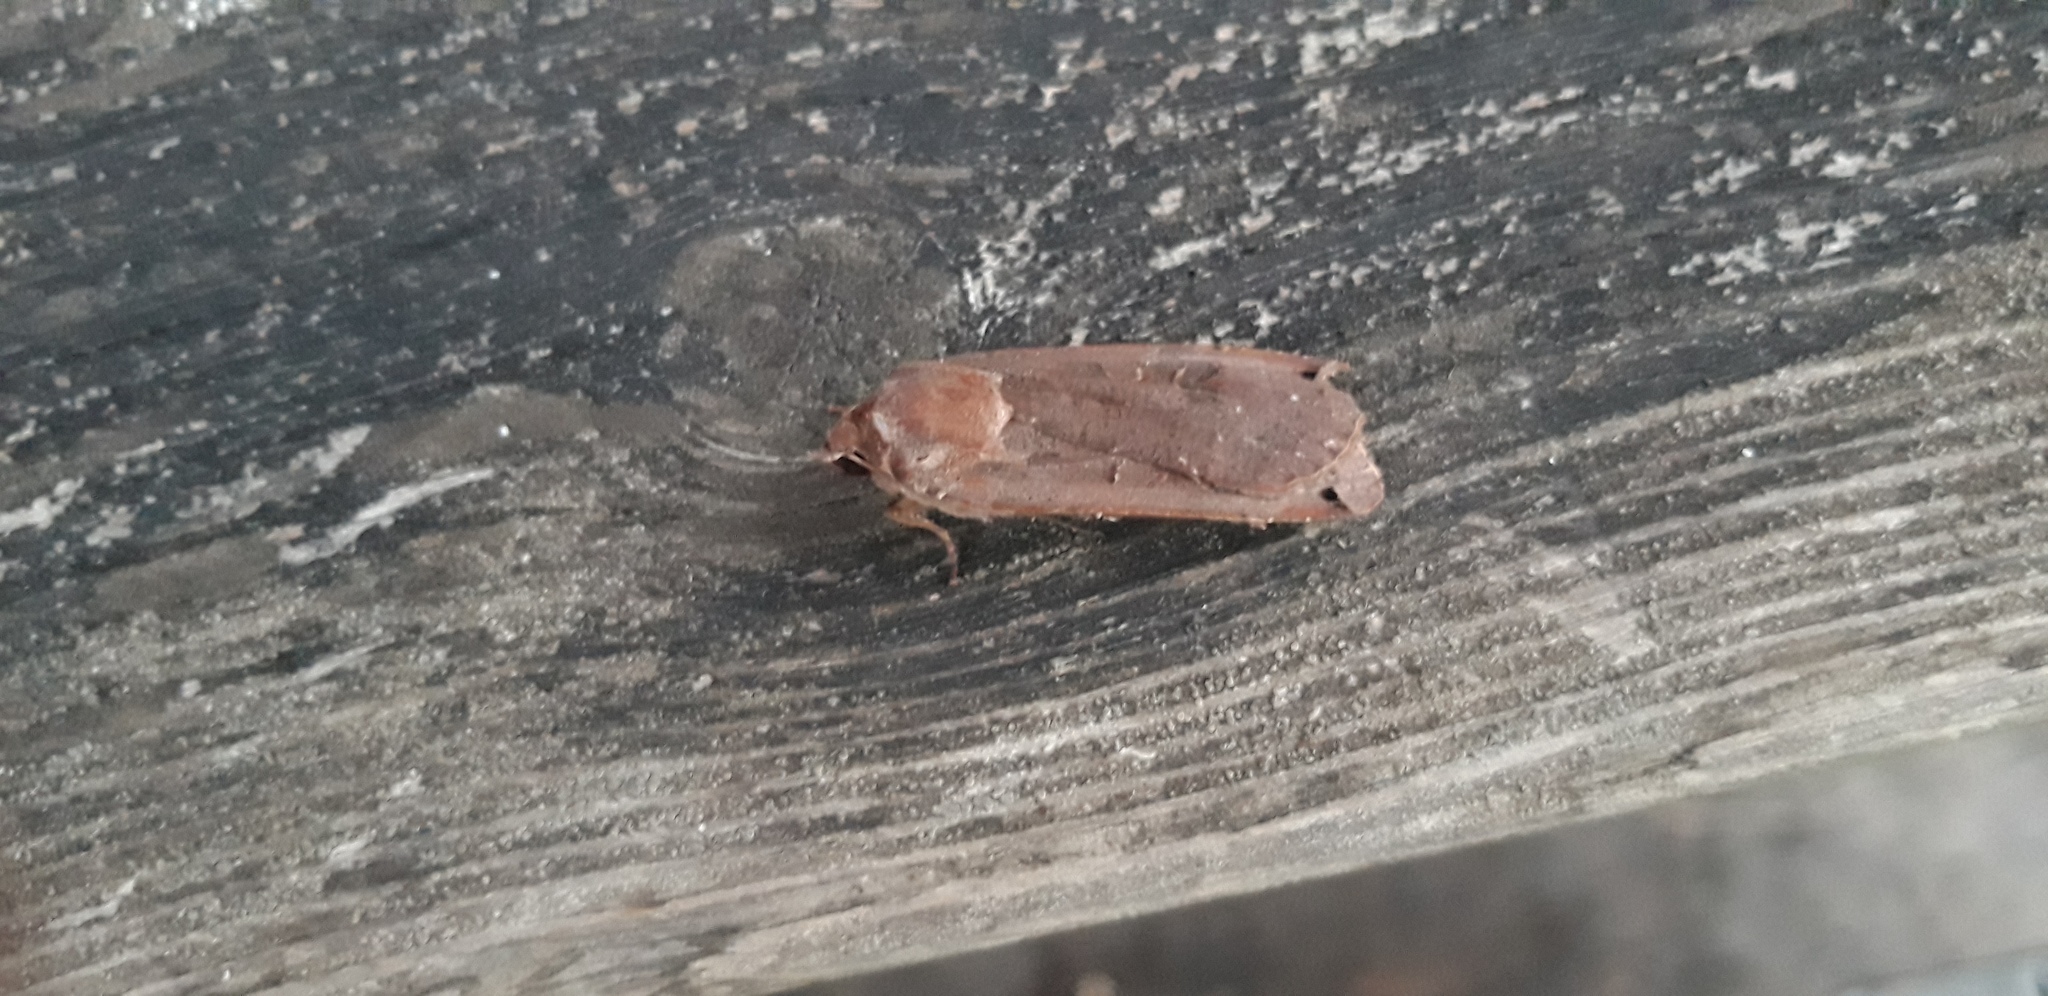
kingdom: Animalia
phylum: Arthropoda
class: Insecta
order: Lepidoptera
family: Noctuidae
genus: Noctua
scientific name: Noctua pronuba
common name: Large yellow underwing
